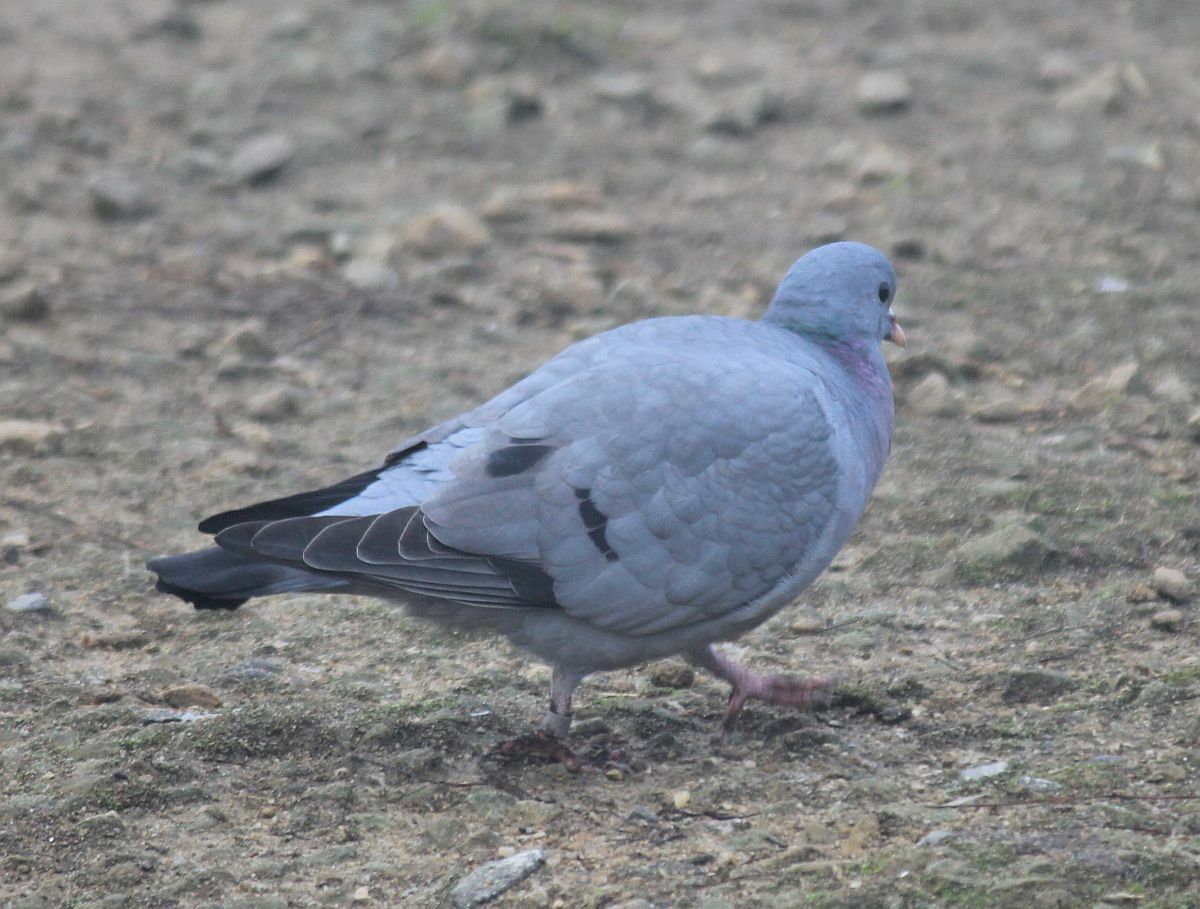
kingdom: Animalia
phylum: Chordata
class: Aves
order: Columbiformes
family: Columbidae
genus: Columba
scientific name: Columba oenas
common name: Stock dove
